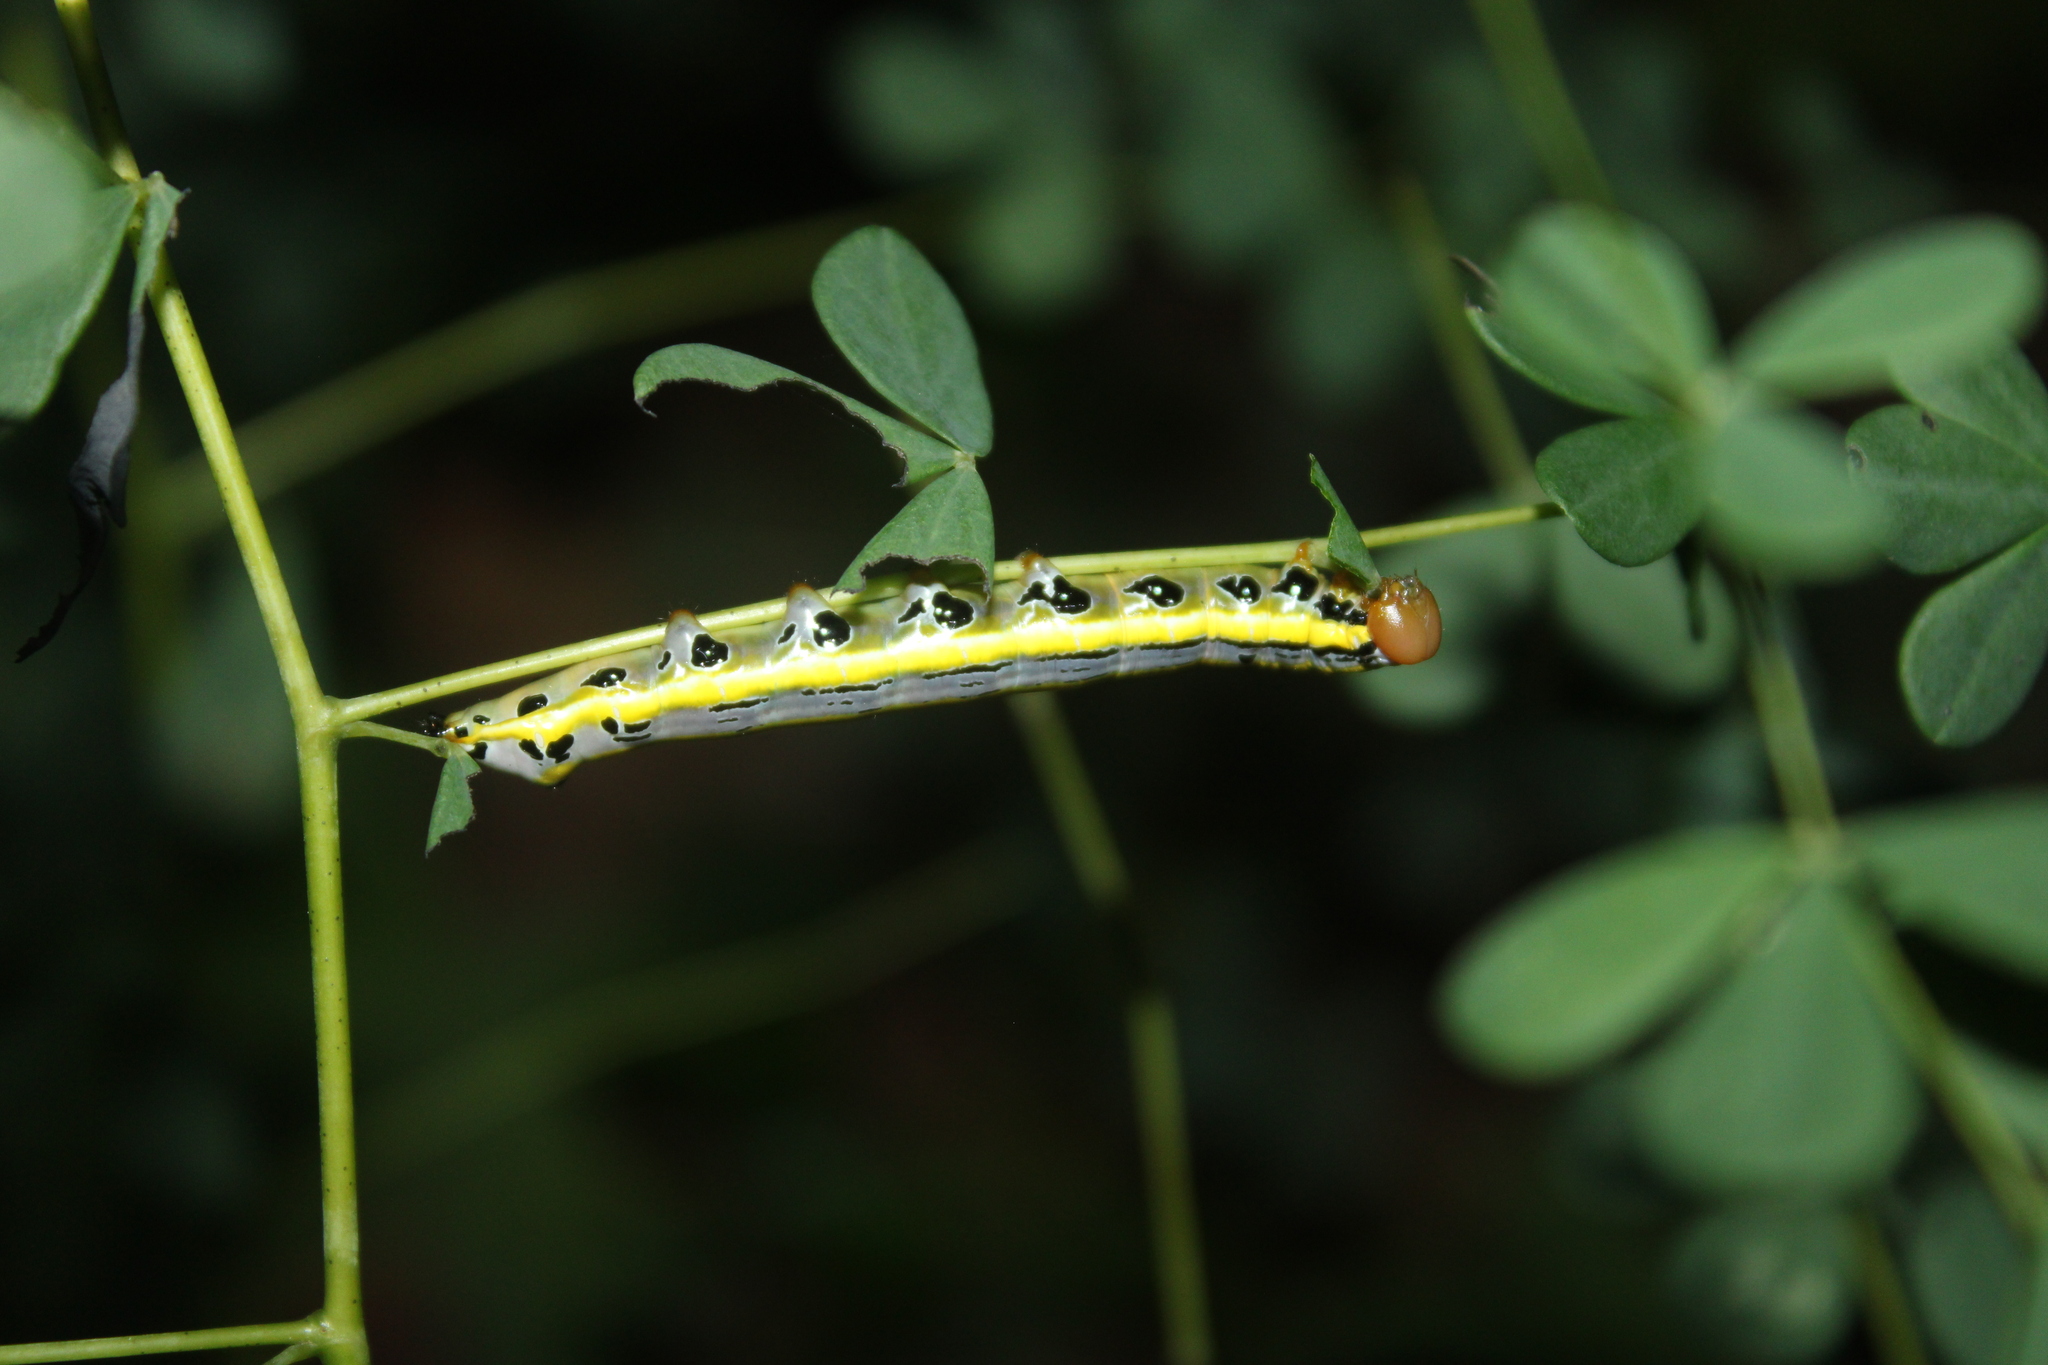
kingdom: Animalia
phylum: Arthropoda
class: Insecta
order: Lepidoptera
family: Notodontidae
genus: Dasylophia
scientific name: Dasylophia anguina
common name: Black-spotted prominent
